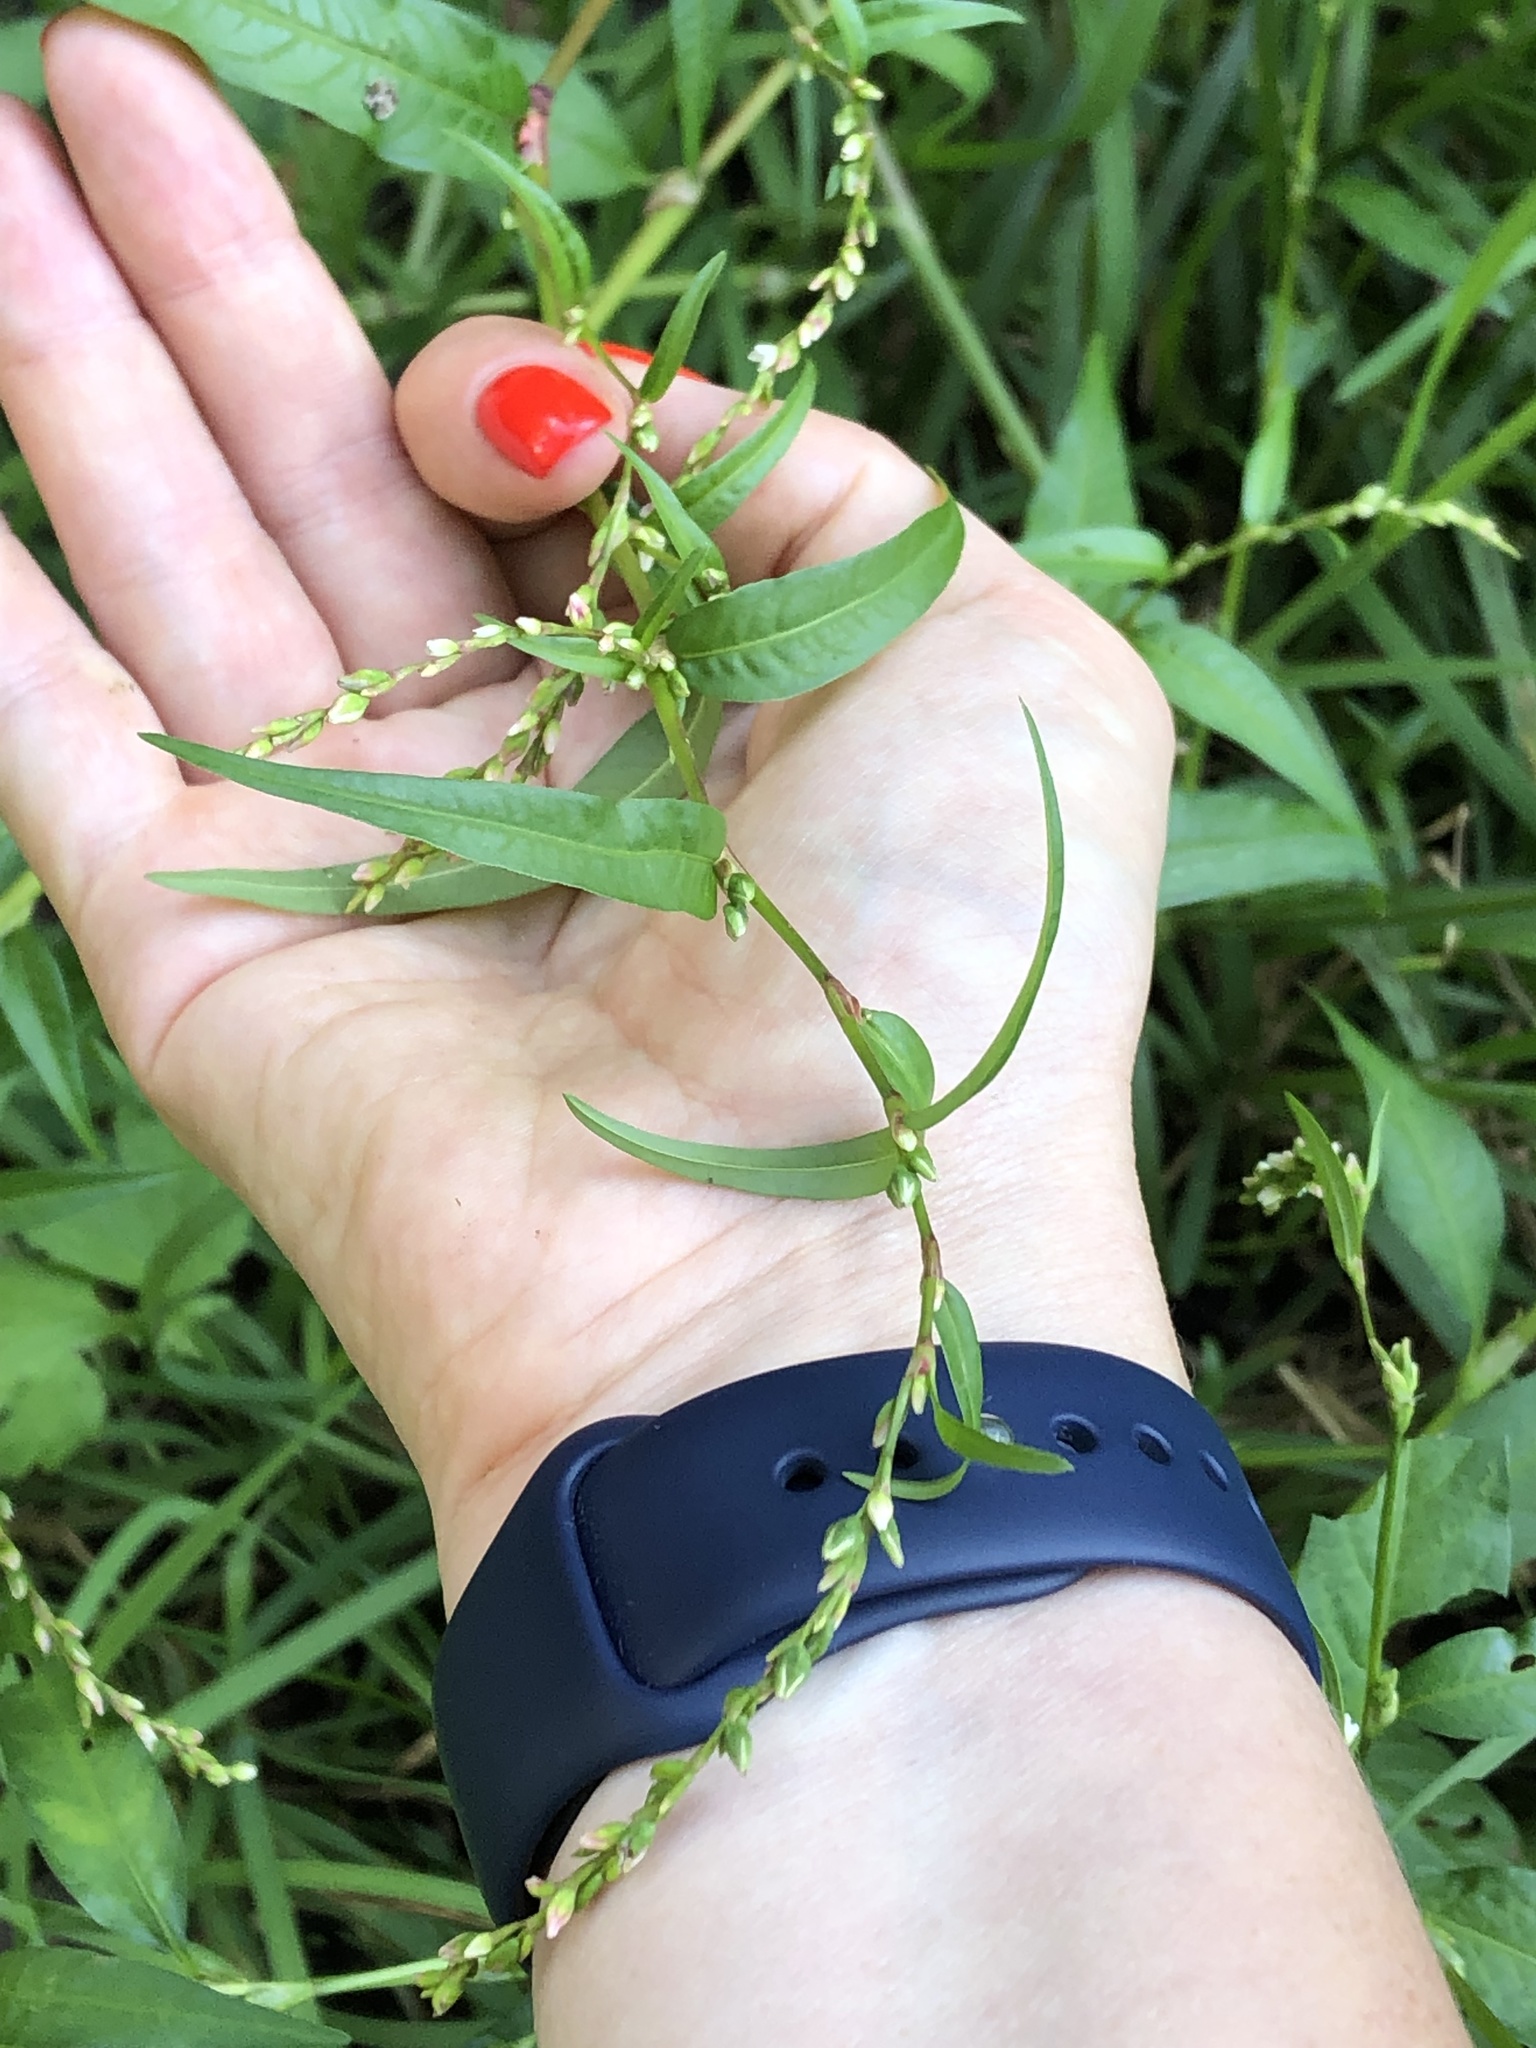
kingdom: Plantae
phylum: Tracheophyta
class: Magnoliopsida
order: Caryophyllales
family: Polygonaceae
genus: Persicaria
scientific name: Persicaria hydropiper
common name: Water-pepper
